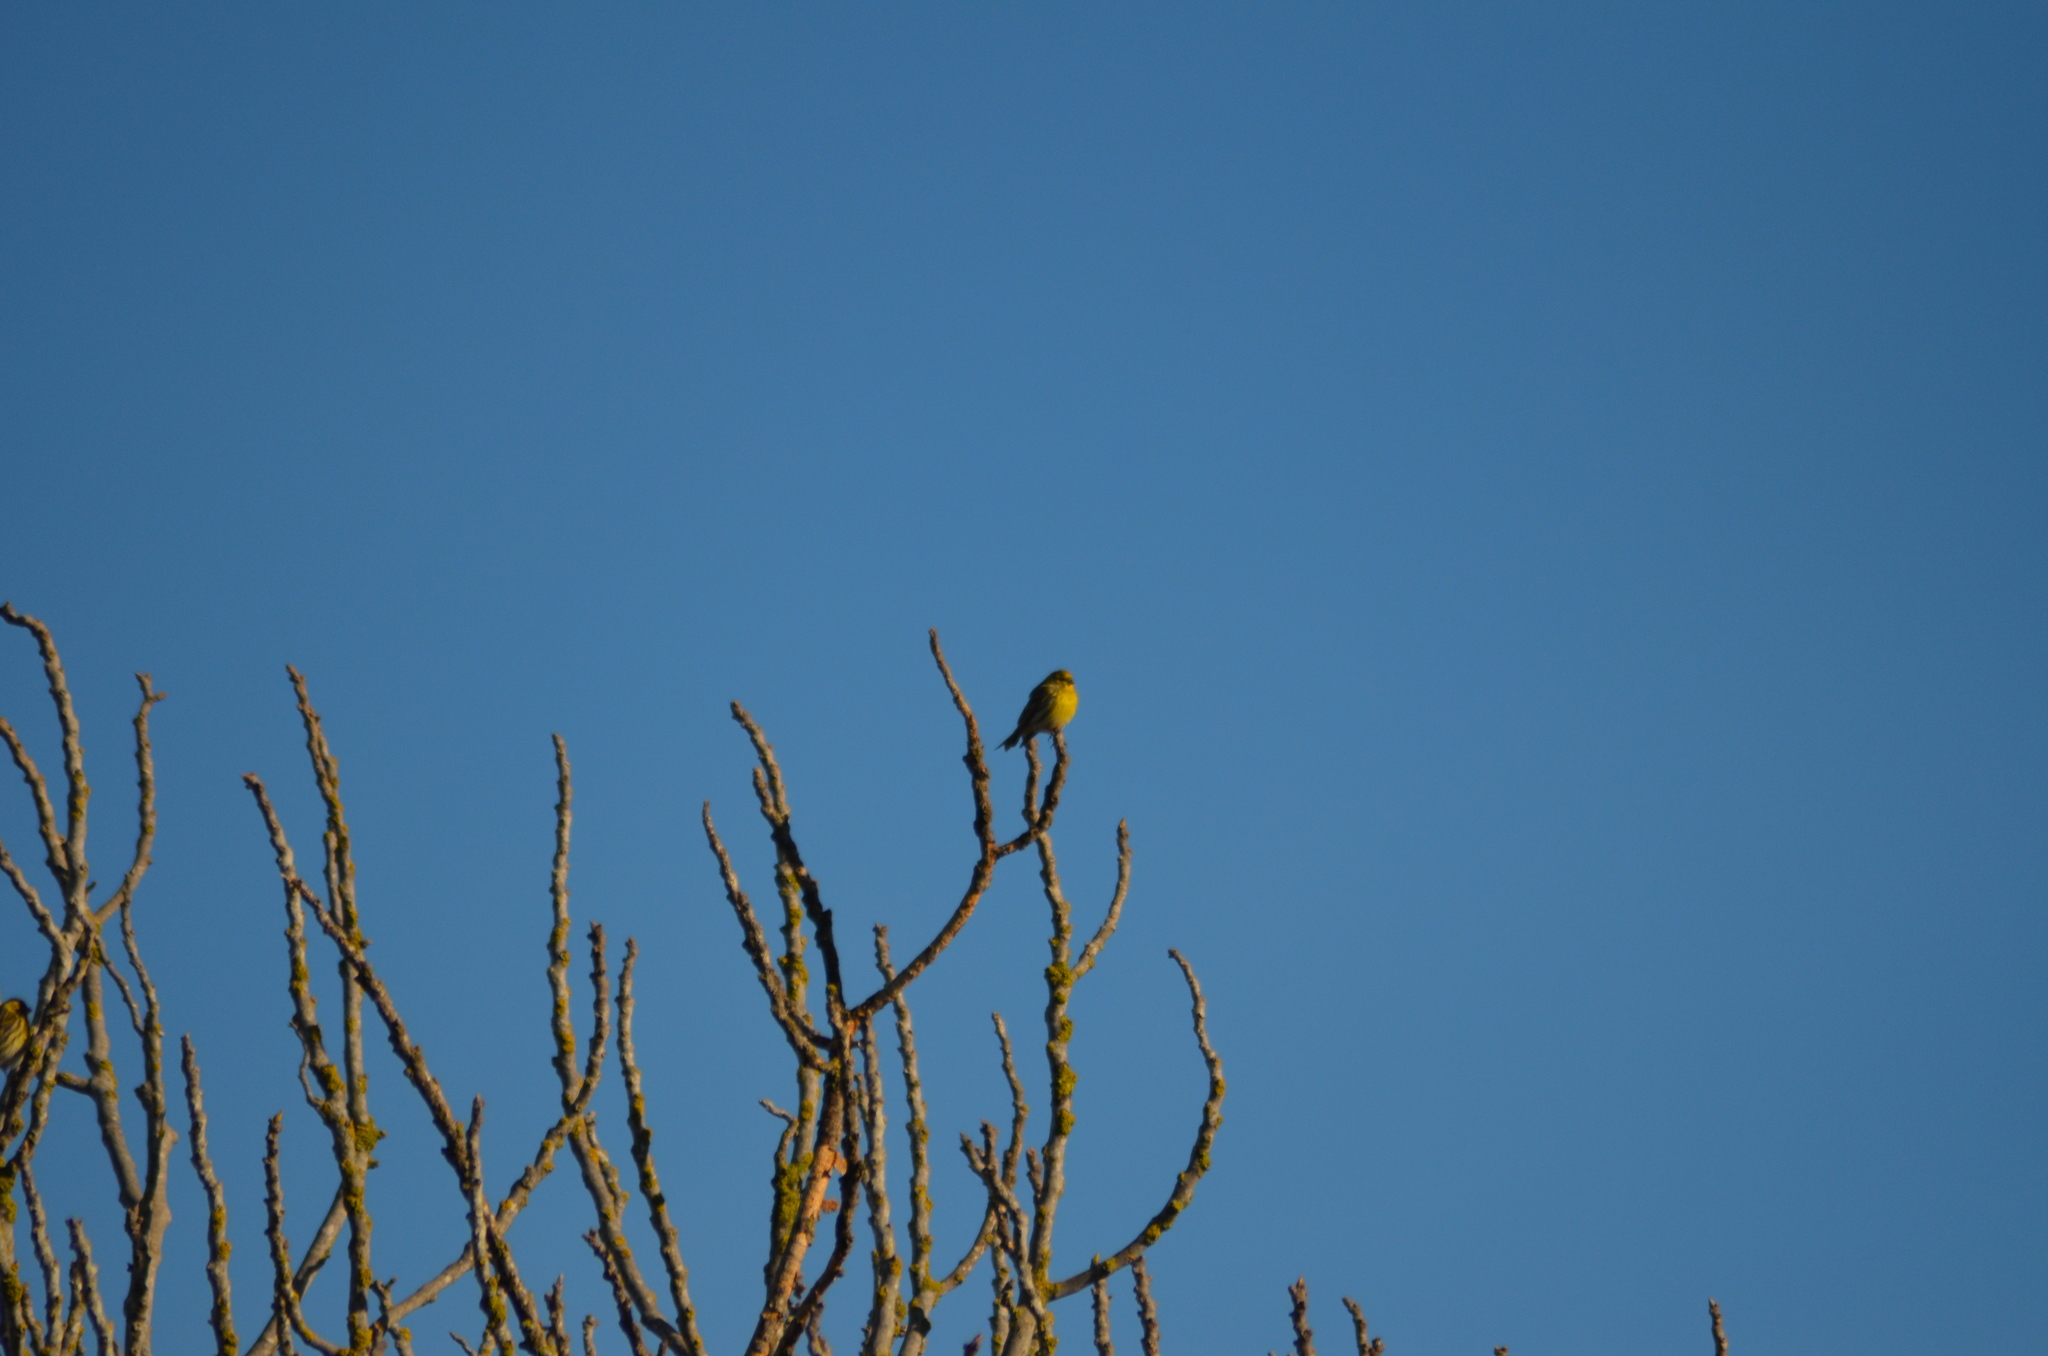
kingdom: Animalia
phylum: Chordata
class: Aves
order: Passeriformes
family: Fringillidae
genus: Serinus
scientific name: Serinus serinus
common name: European serin
